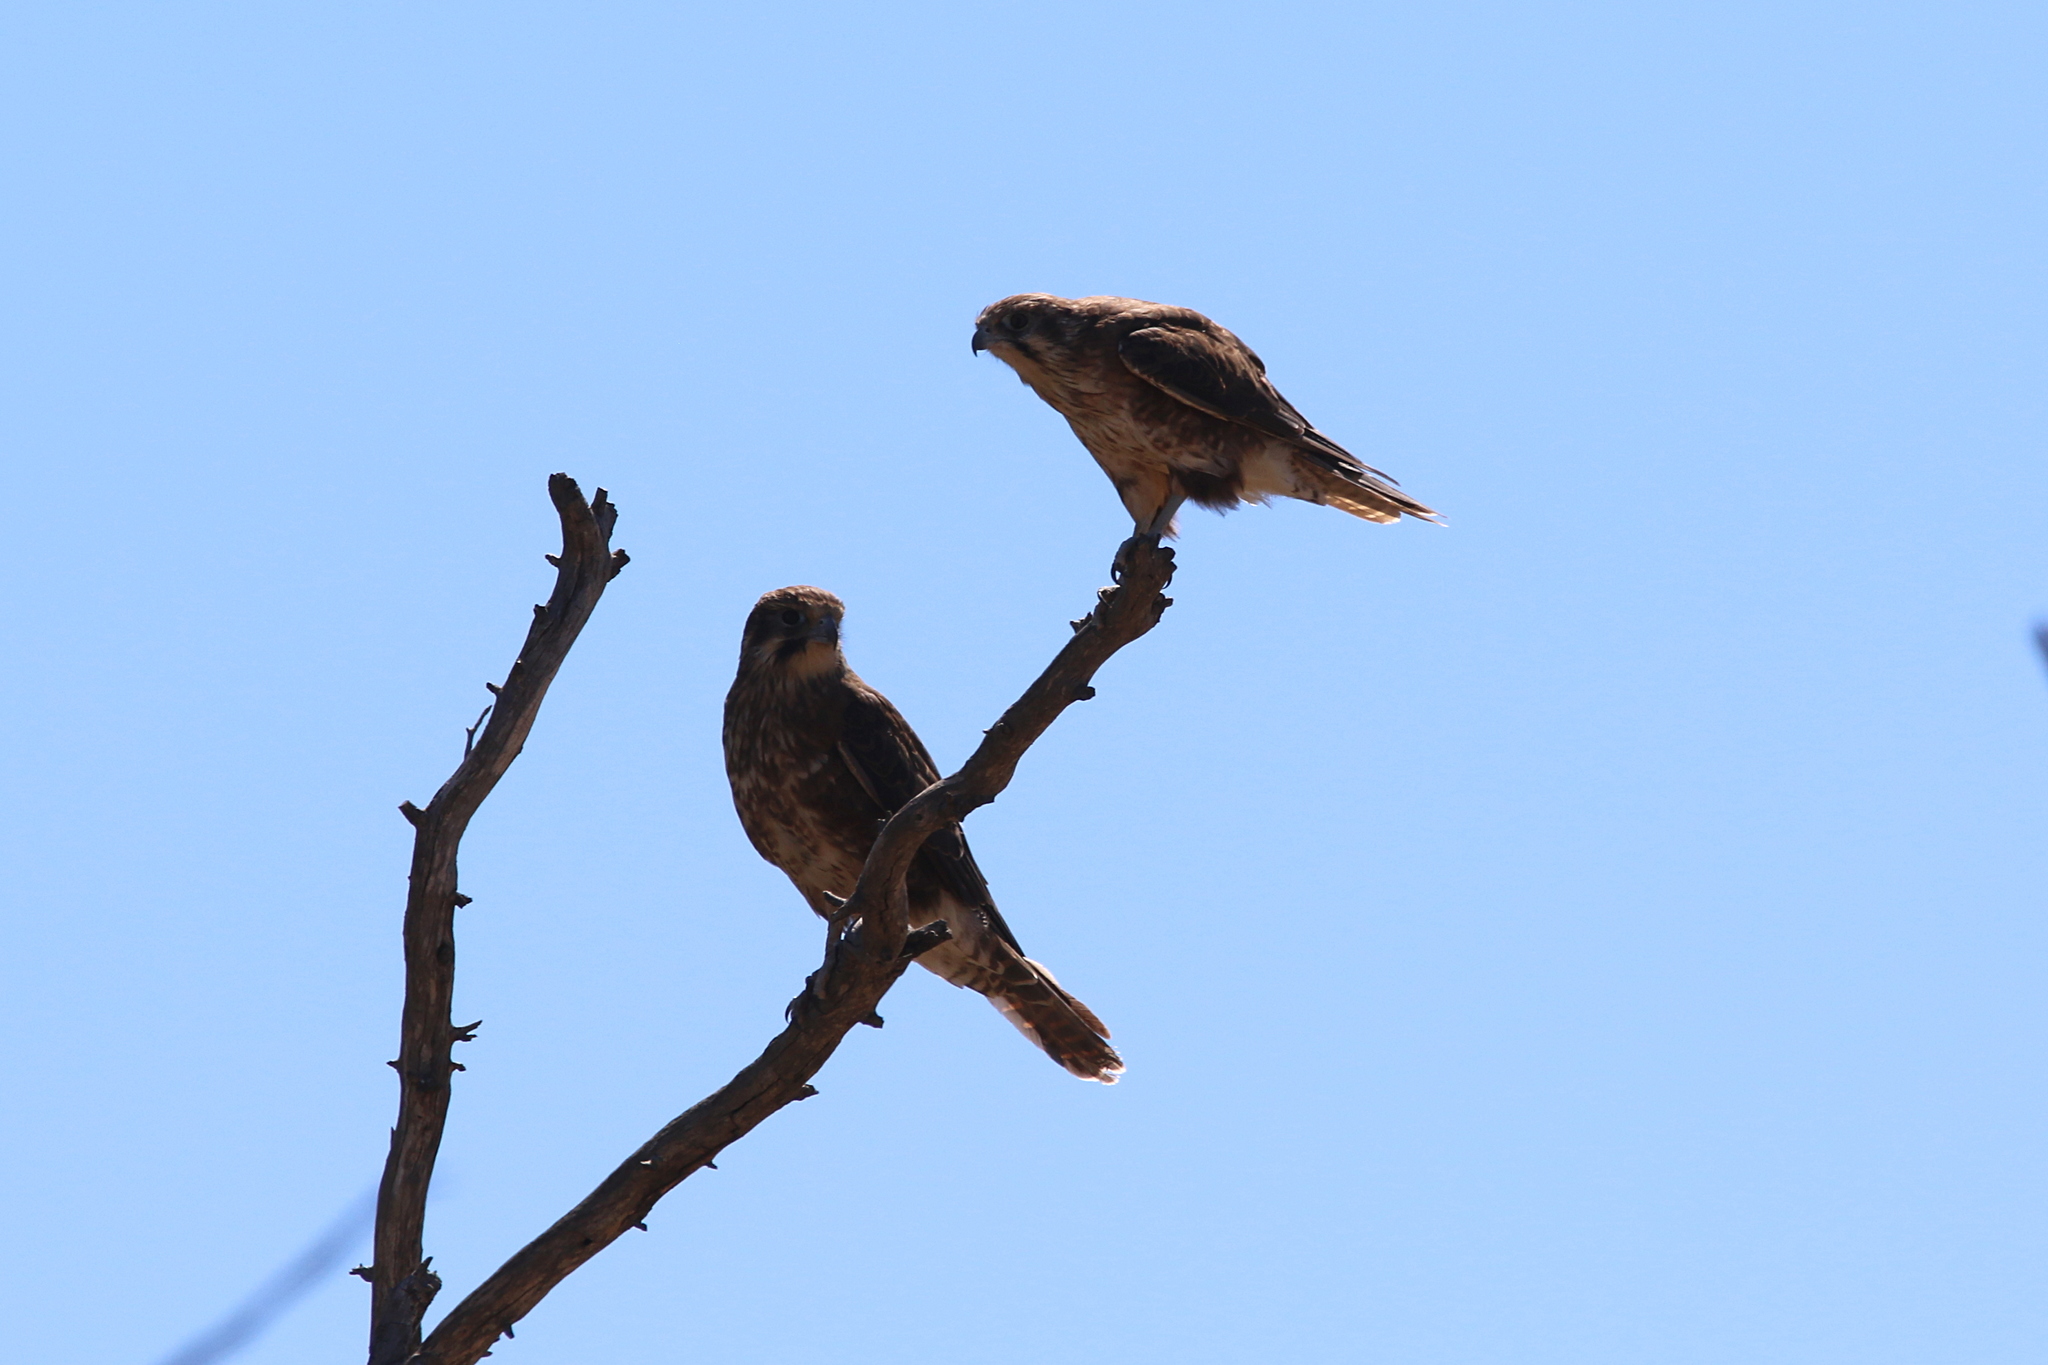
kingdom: Animalia
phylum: Chordata
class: Aves
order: Falconiformes
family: Falconidae
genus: Falco
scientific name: Falco berigora
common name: Brown falcon
